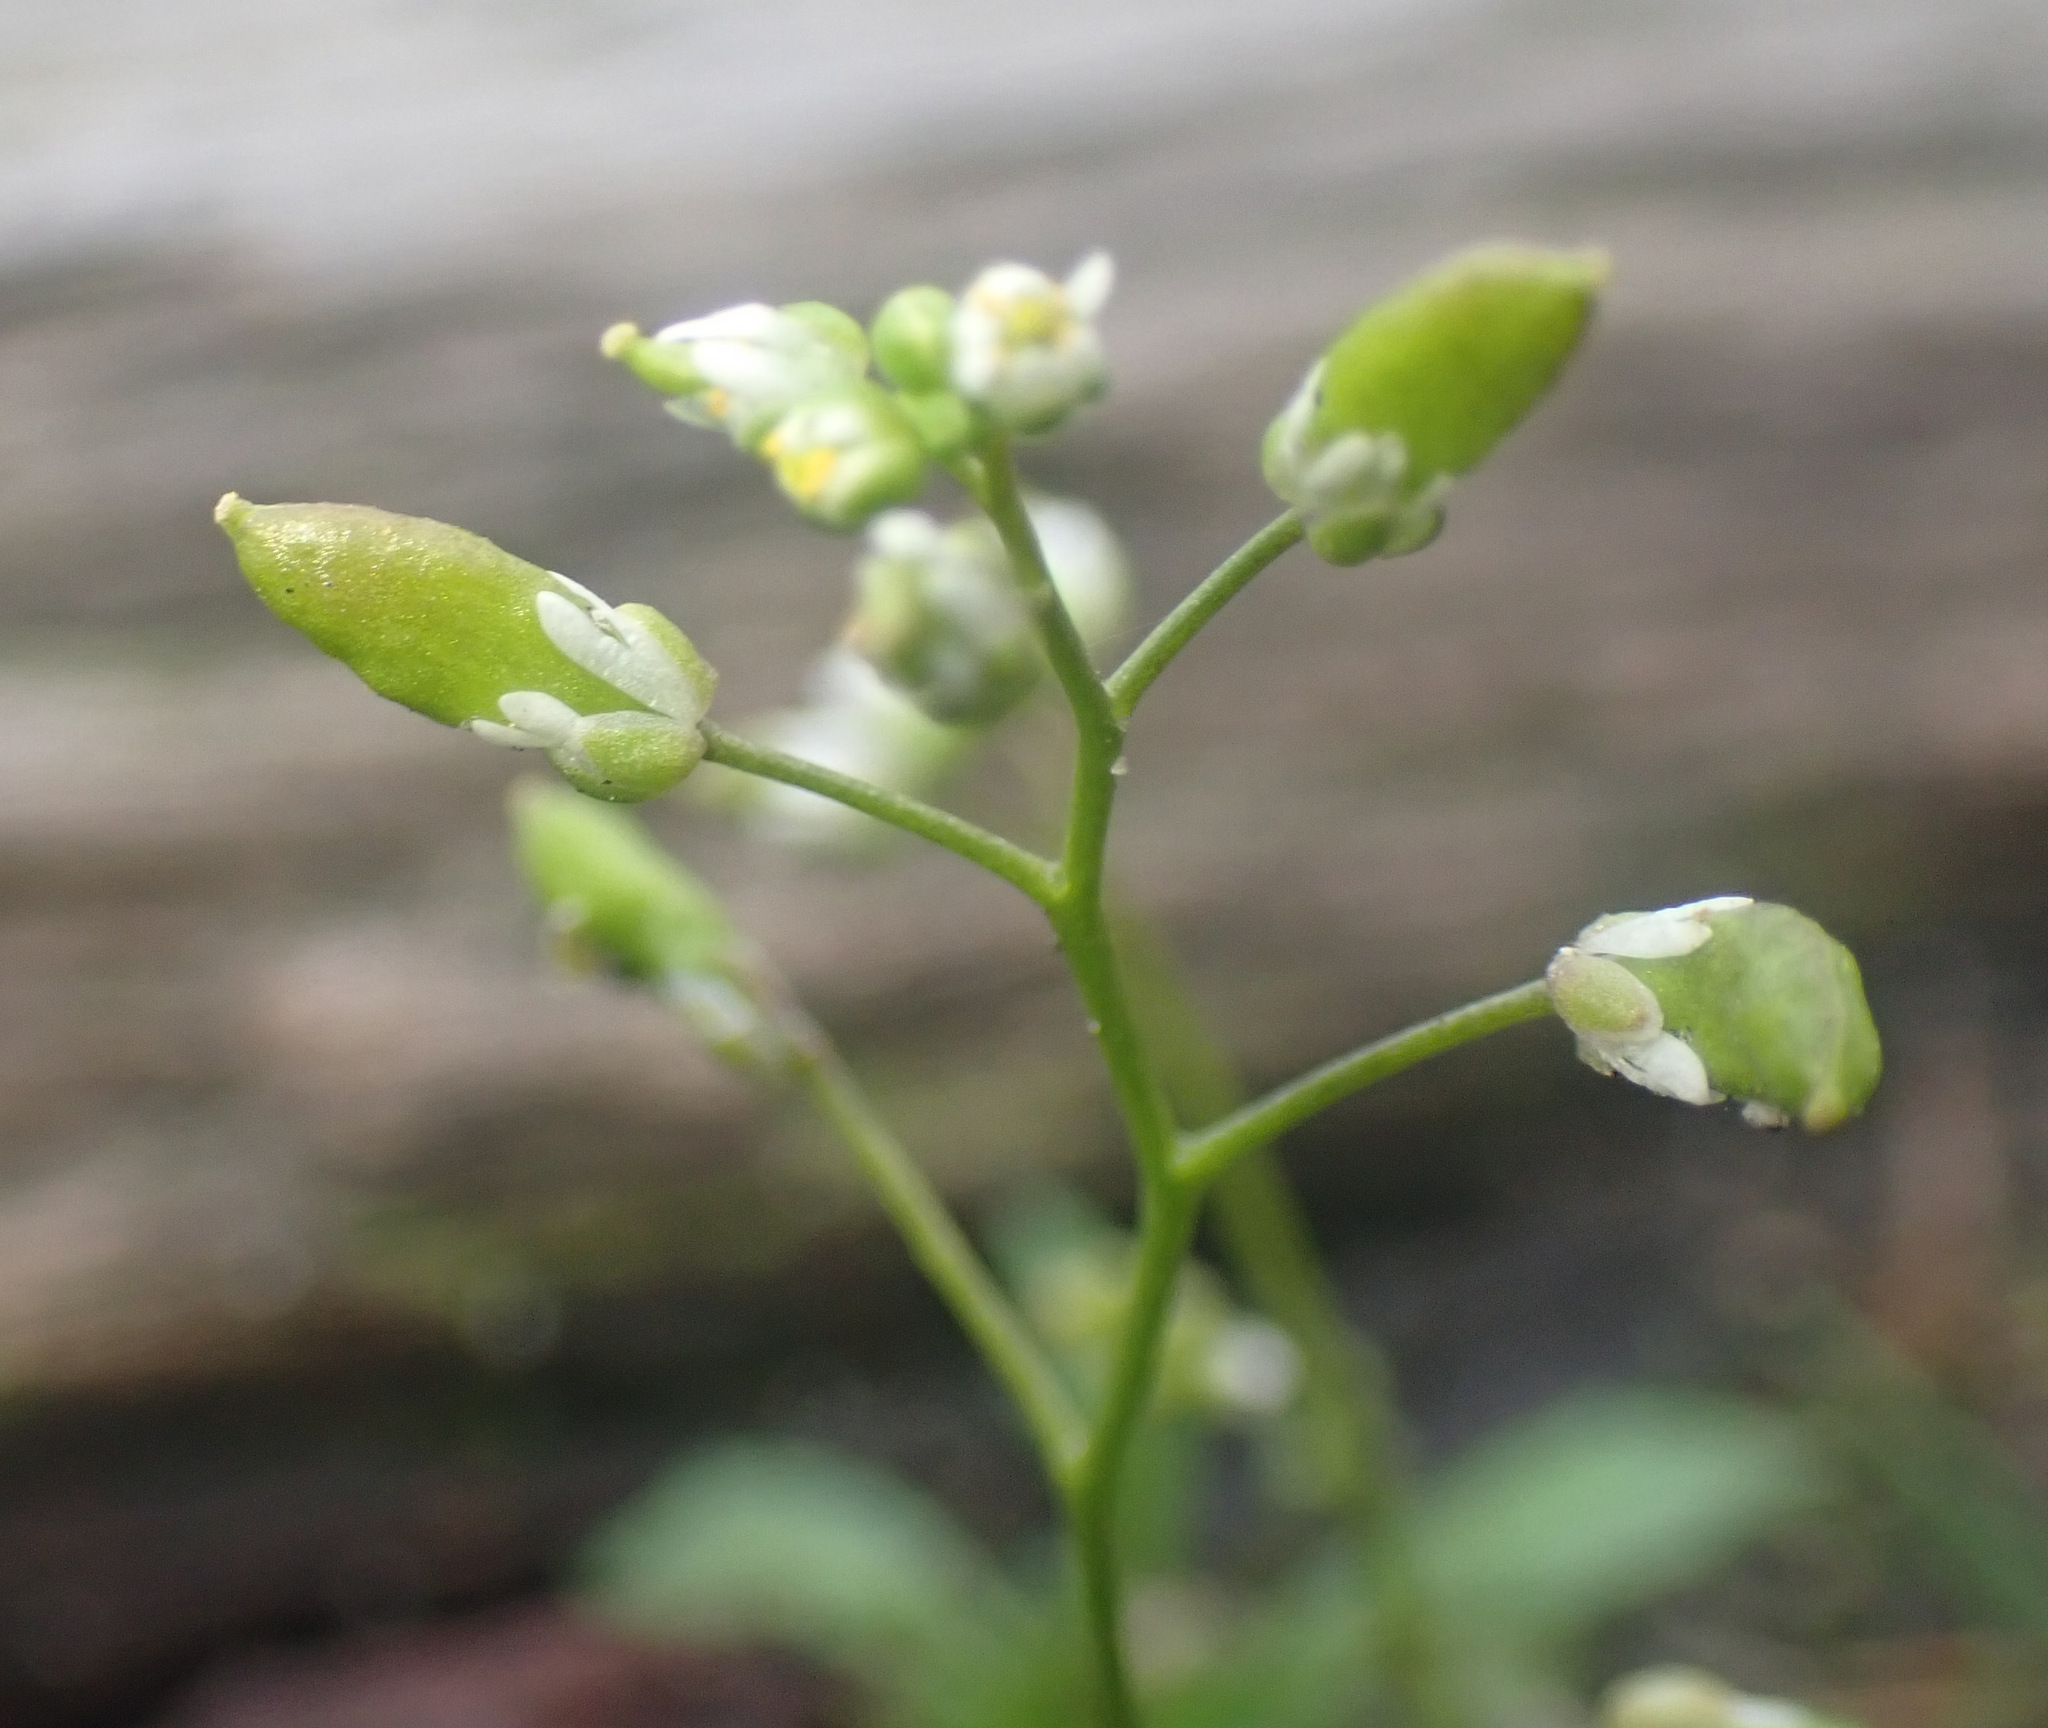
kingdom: Plantae
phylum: Tracheophyta
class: Magnoliopsida
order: Brassicales
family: Brassicaceae
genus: Draba
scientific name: Draba verna
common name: Spring draba
